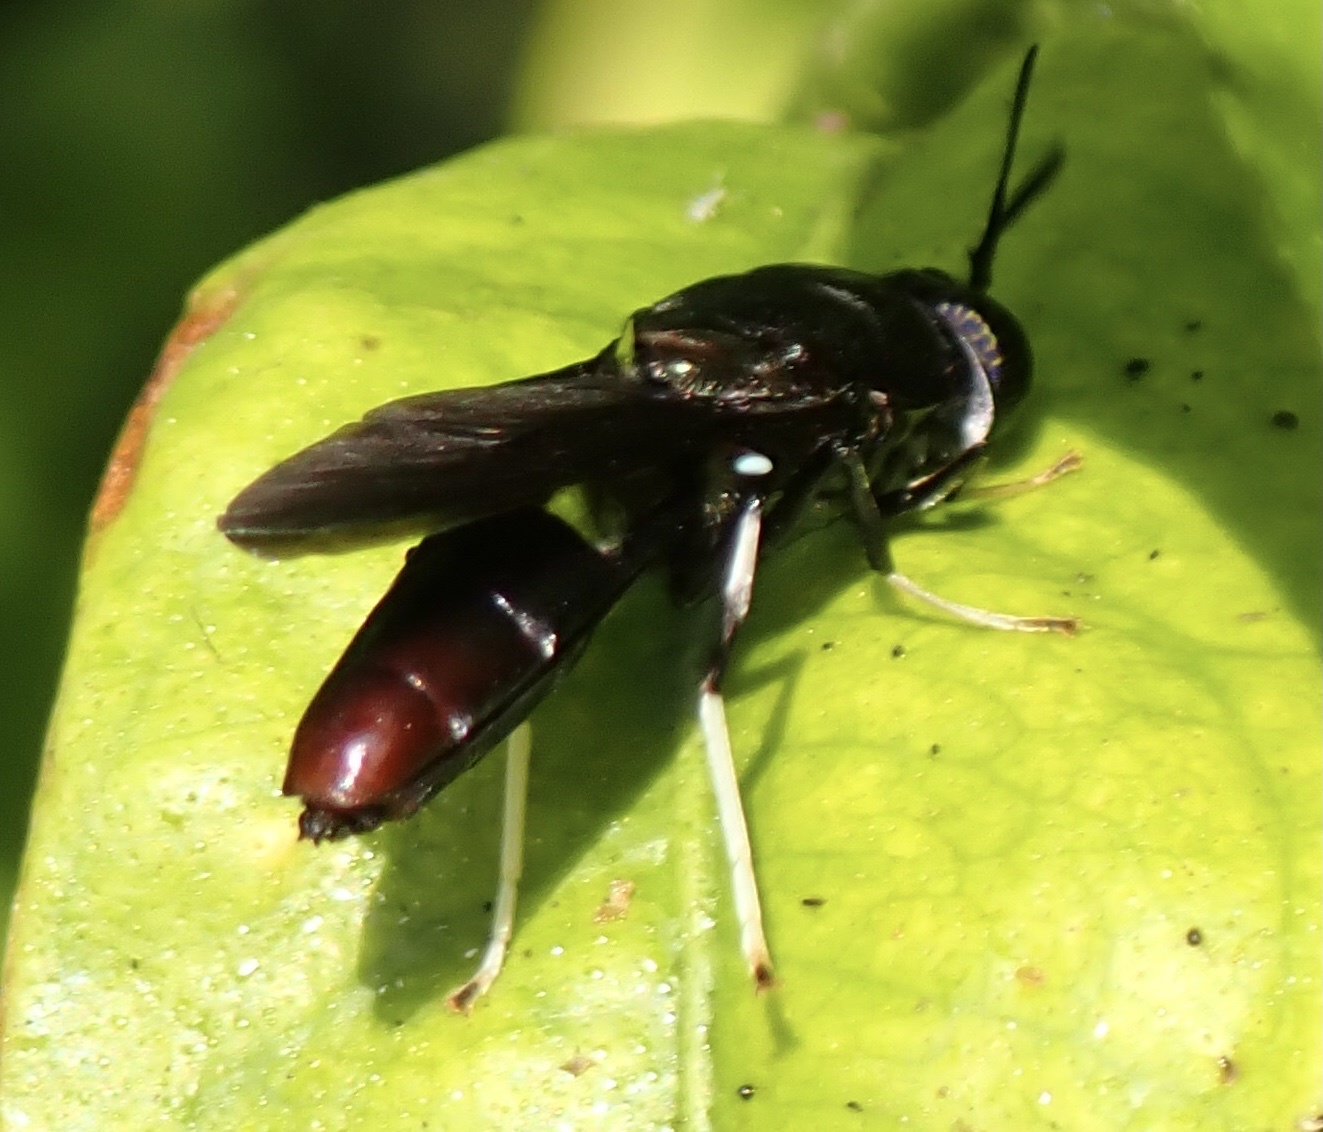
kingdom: Animalia
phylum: Arthropoda
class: Insecta
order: Diptera
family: Stratiomyidae
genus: Hermetia
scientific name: Hermetia illucens
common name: Black soldier fly
